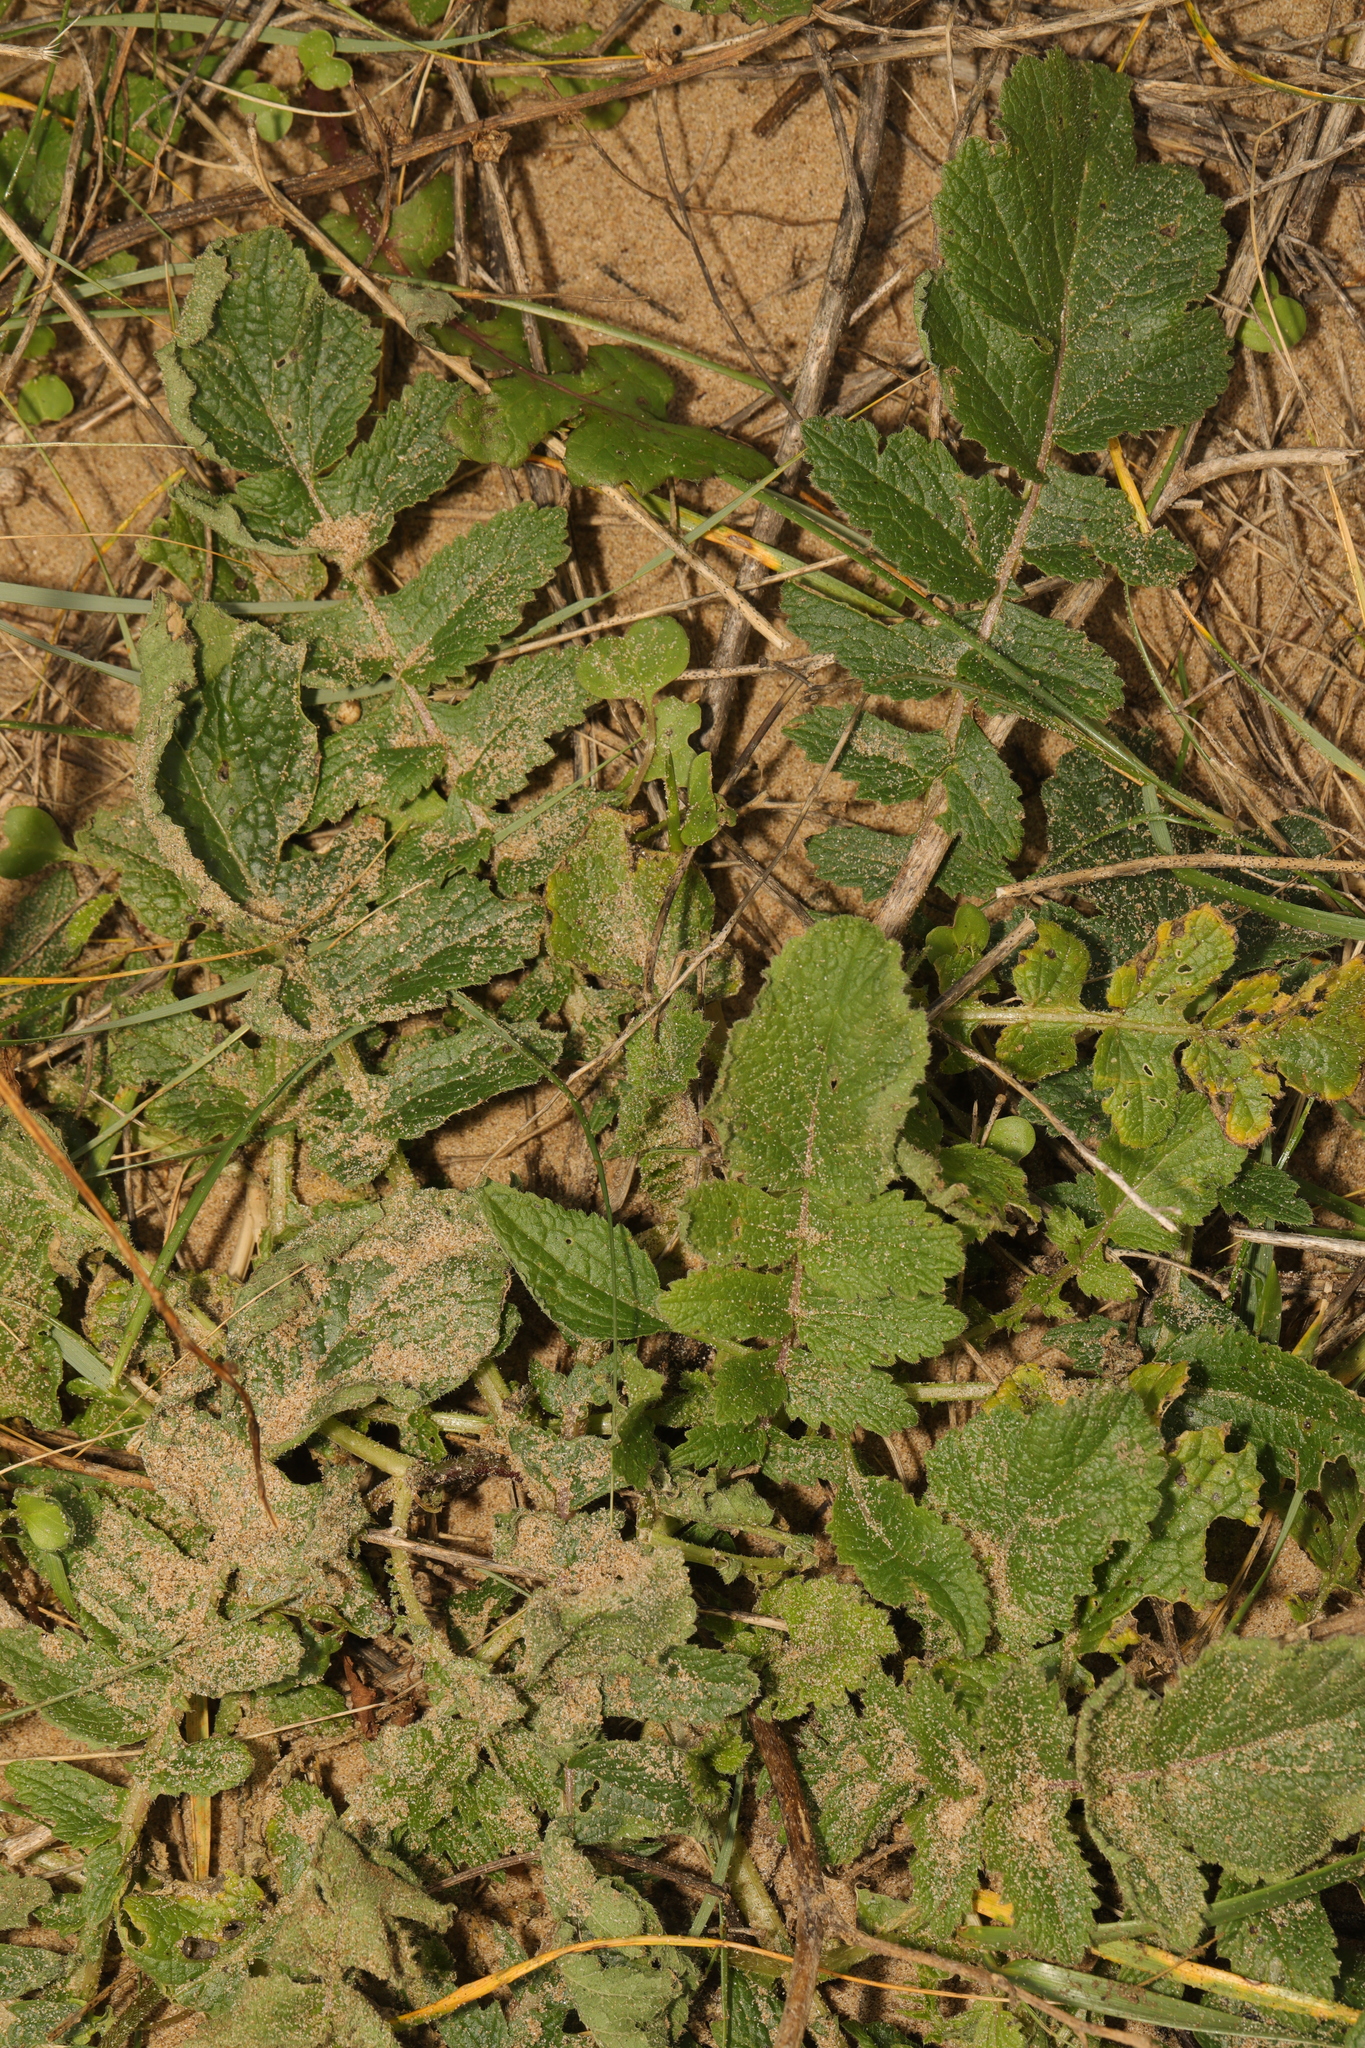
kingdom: Plantae
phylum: Tracheophyta
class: Magnoliopsida
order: Brassicales
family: Brassicaceae
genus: Raphanus
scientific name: Raphanus raphanistrum
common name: Wild radish
